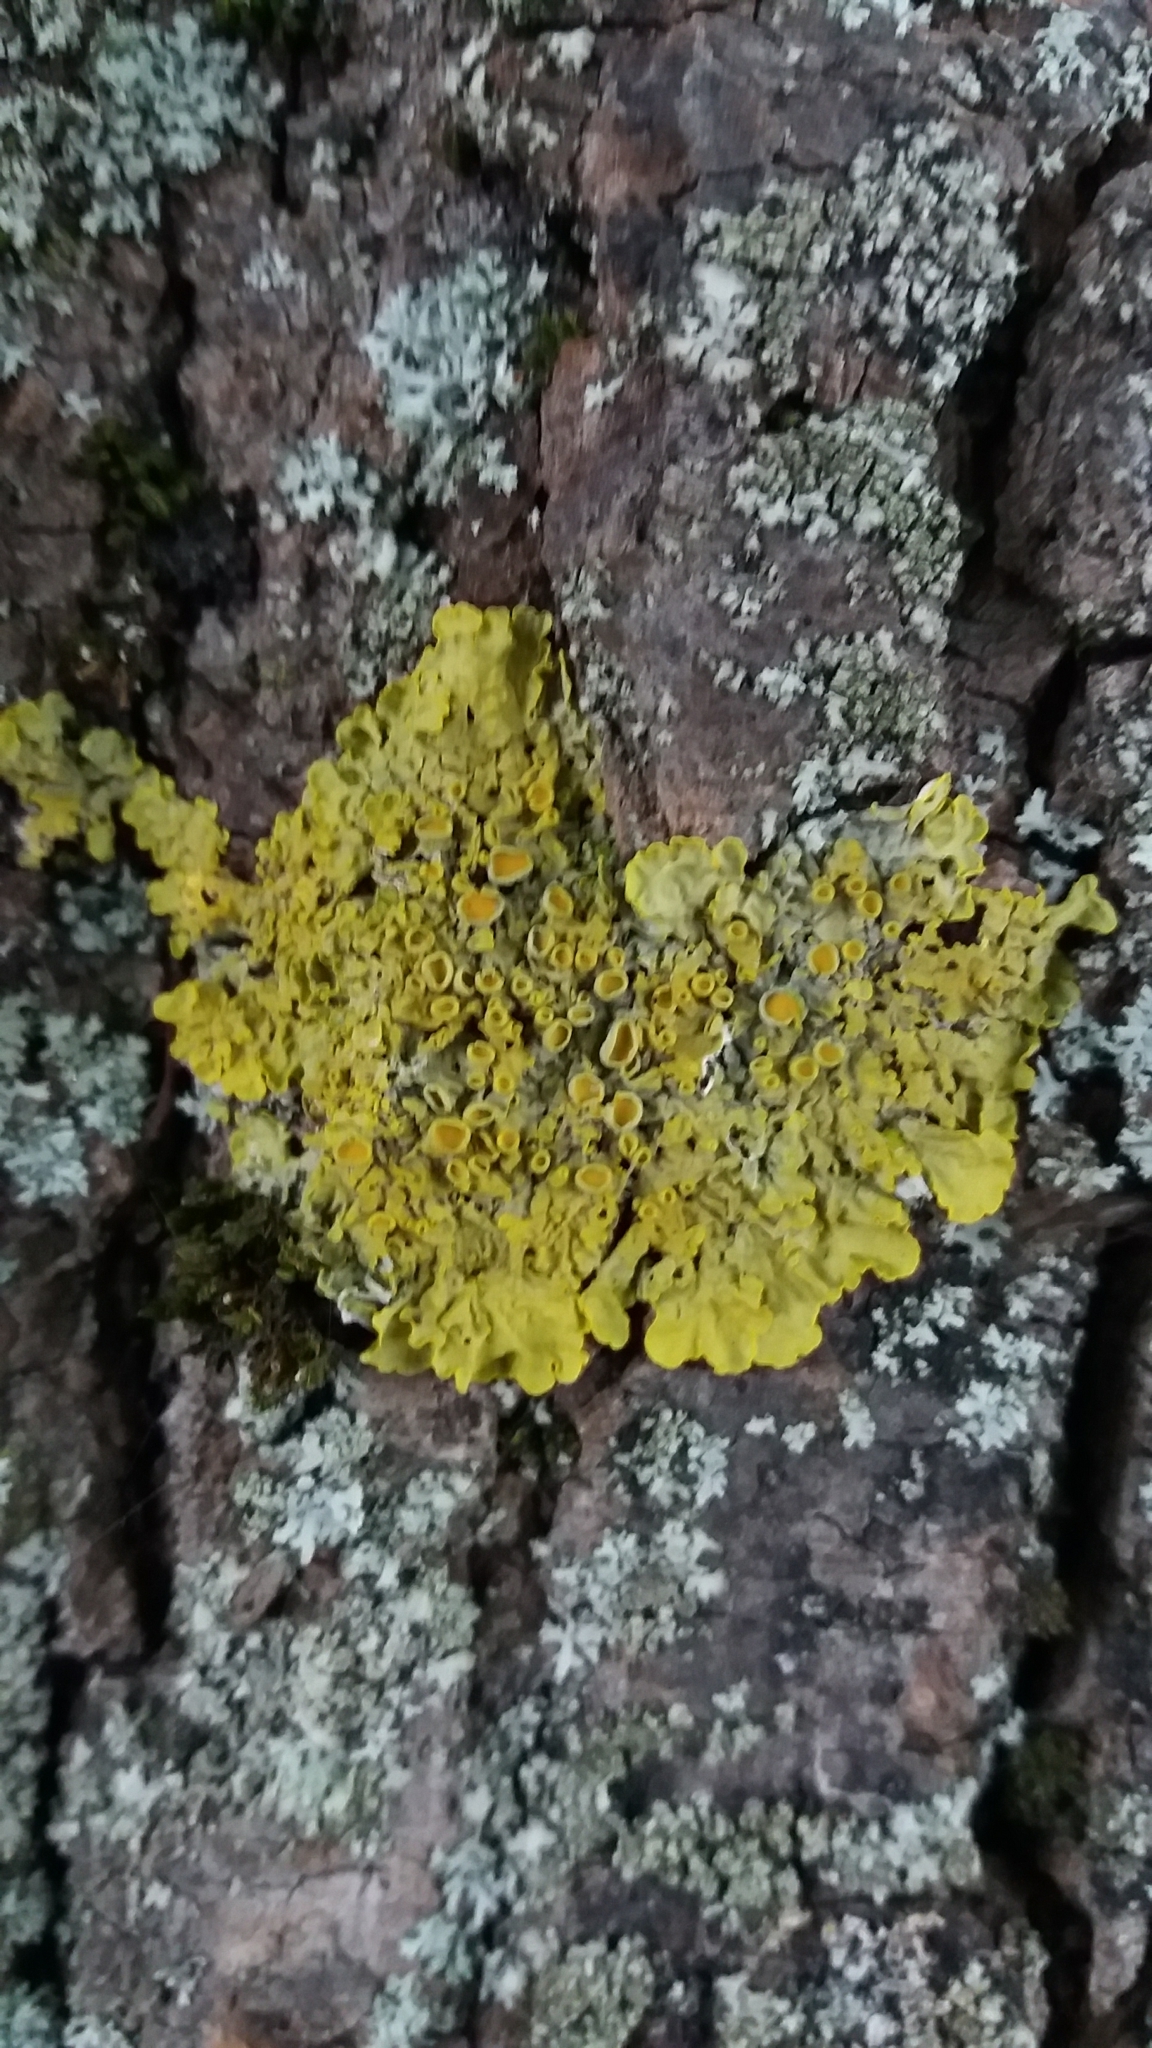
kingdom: Fungi
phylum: Ascomycota
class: Lecanoromycetes
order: Teloschistales
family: Teloschistaceae
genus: Xanthoria
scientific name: Xanthoria parietina
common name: Common orange lichen
